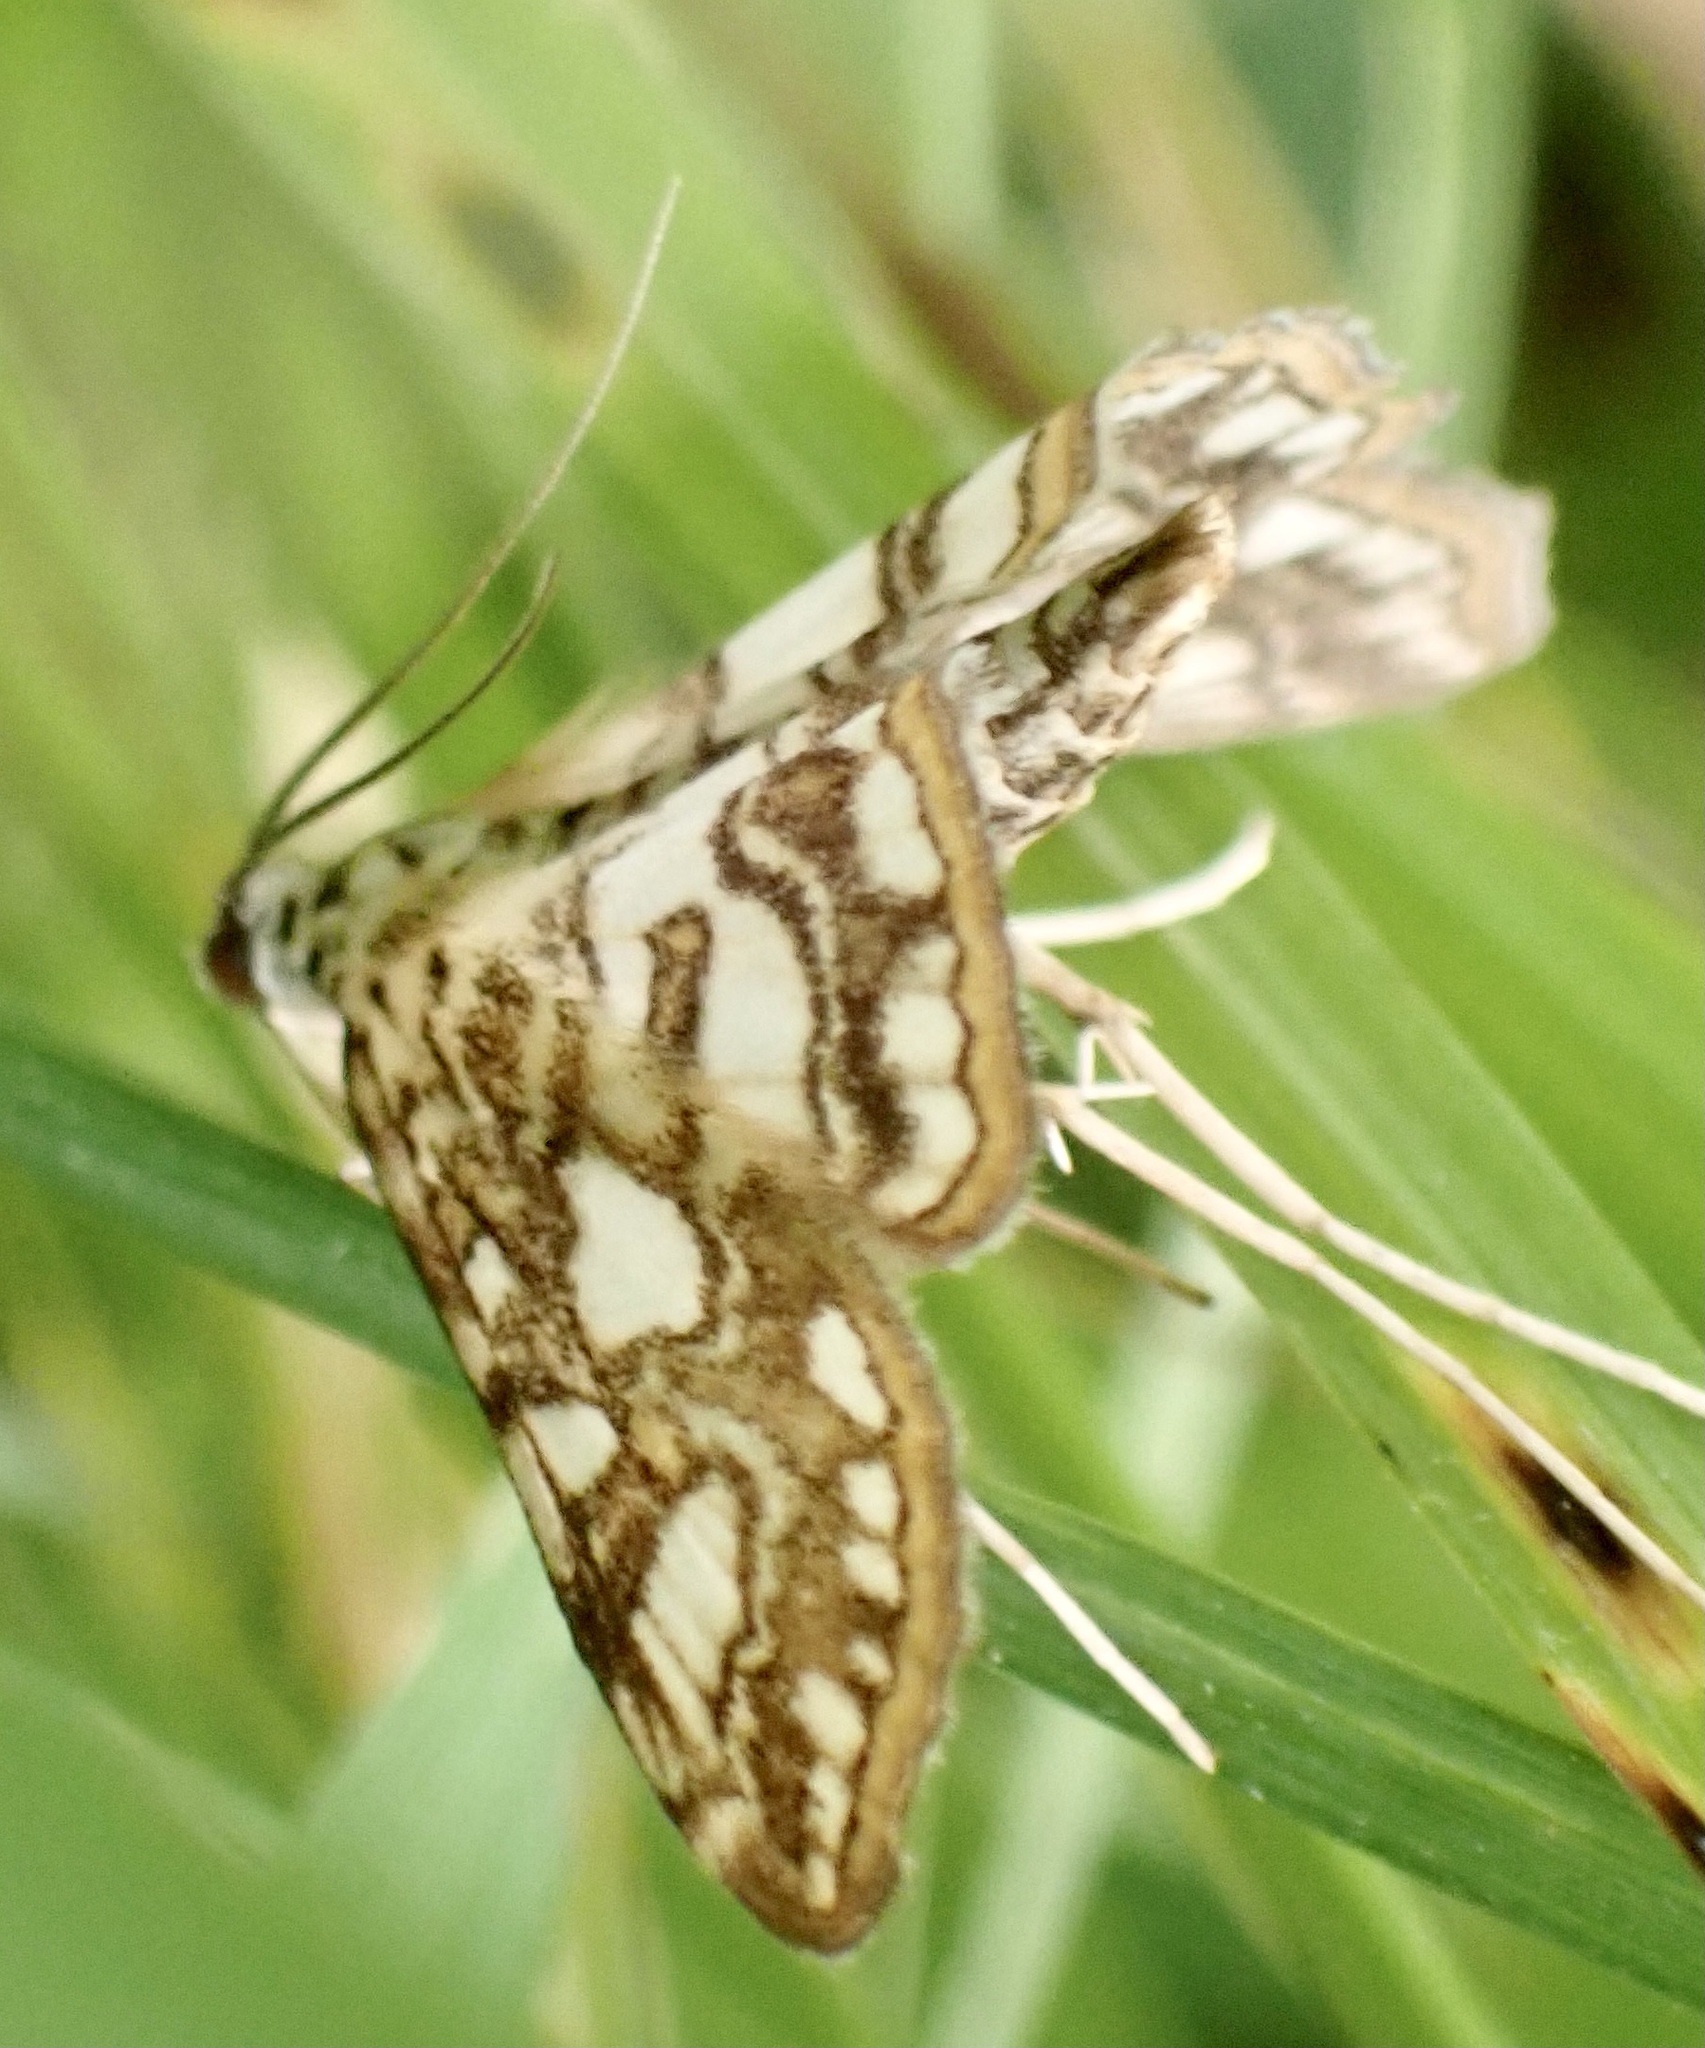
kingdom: Animalia
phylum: Arthropoda
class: Insecta
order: Lepidoptera
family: Crambidae
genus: Elophila
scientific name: Elophila nymphaeata
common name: Brown china-mark
